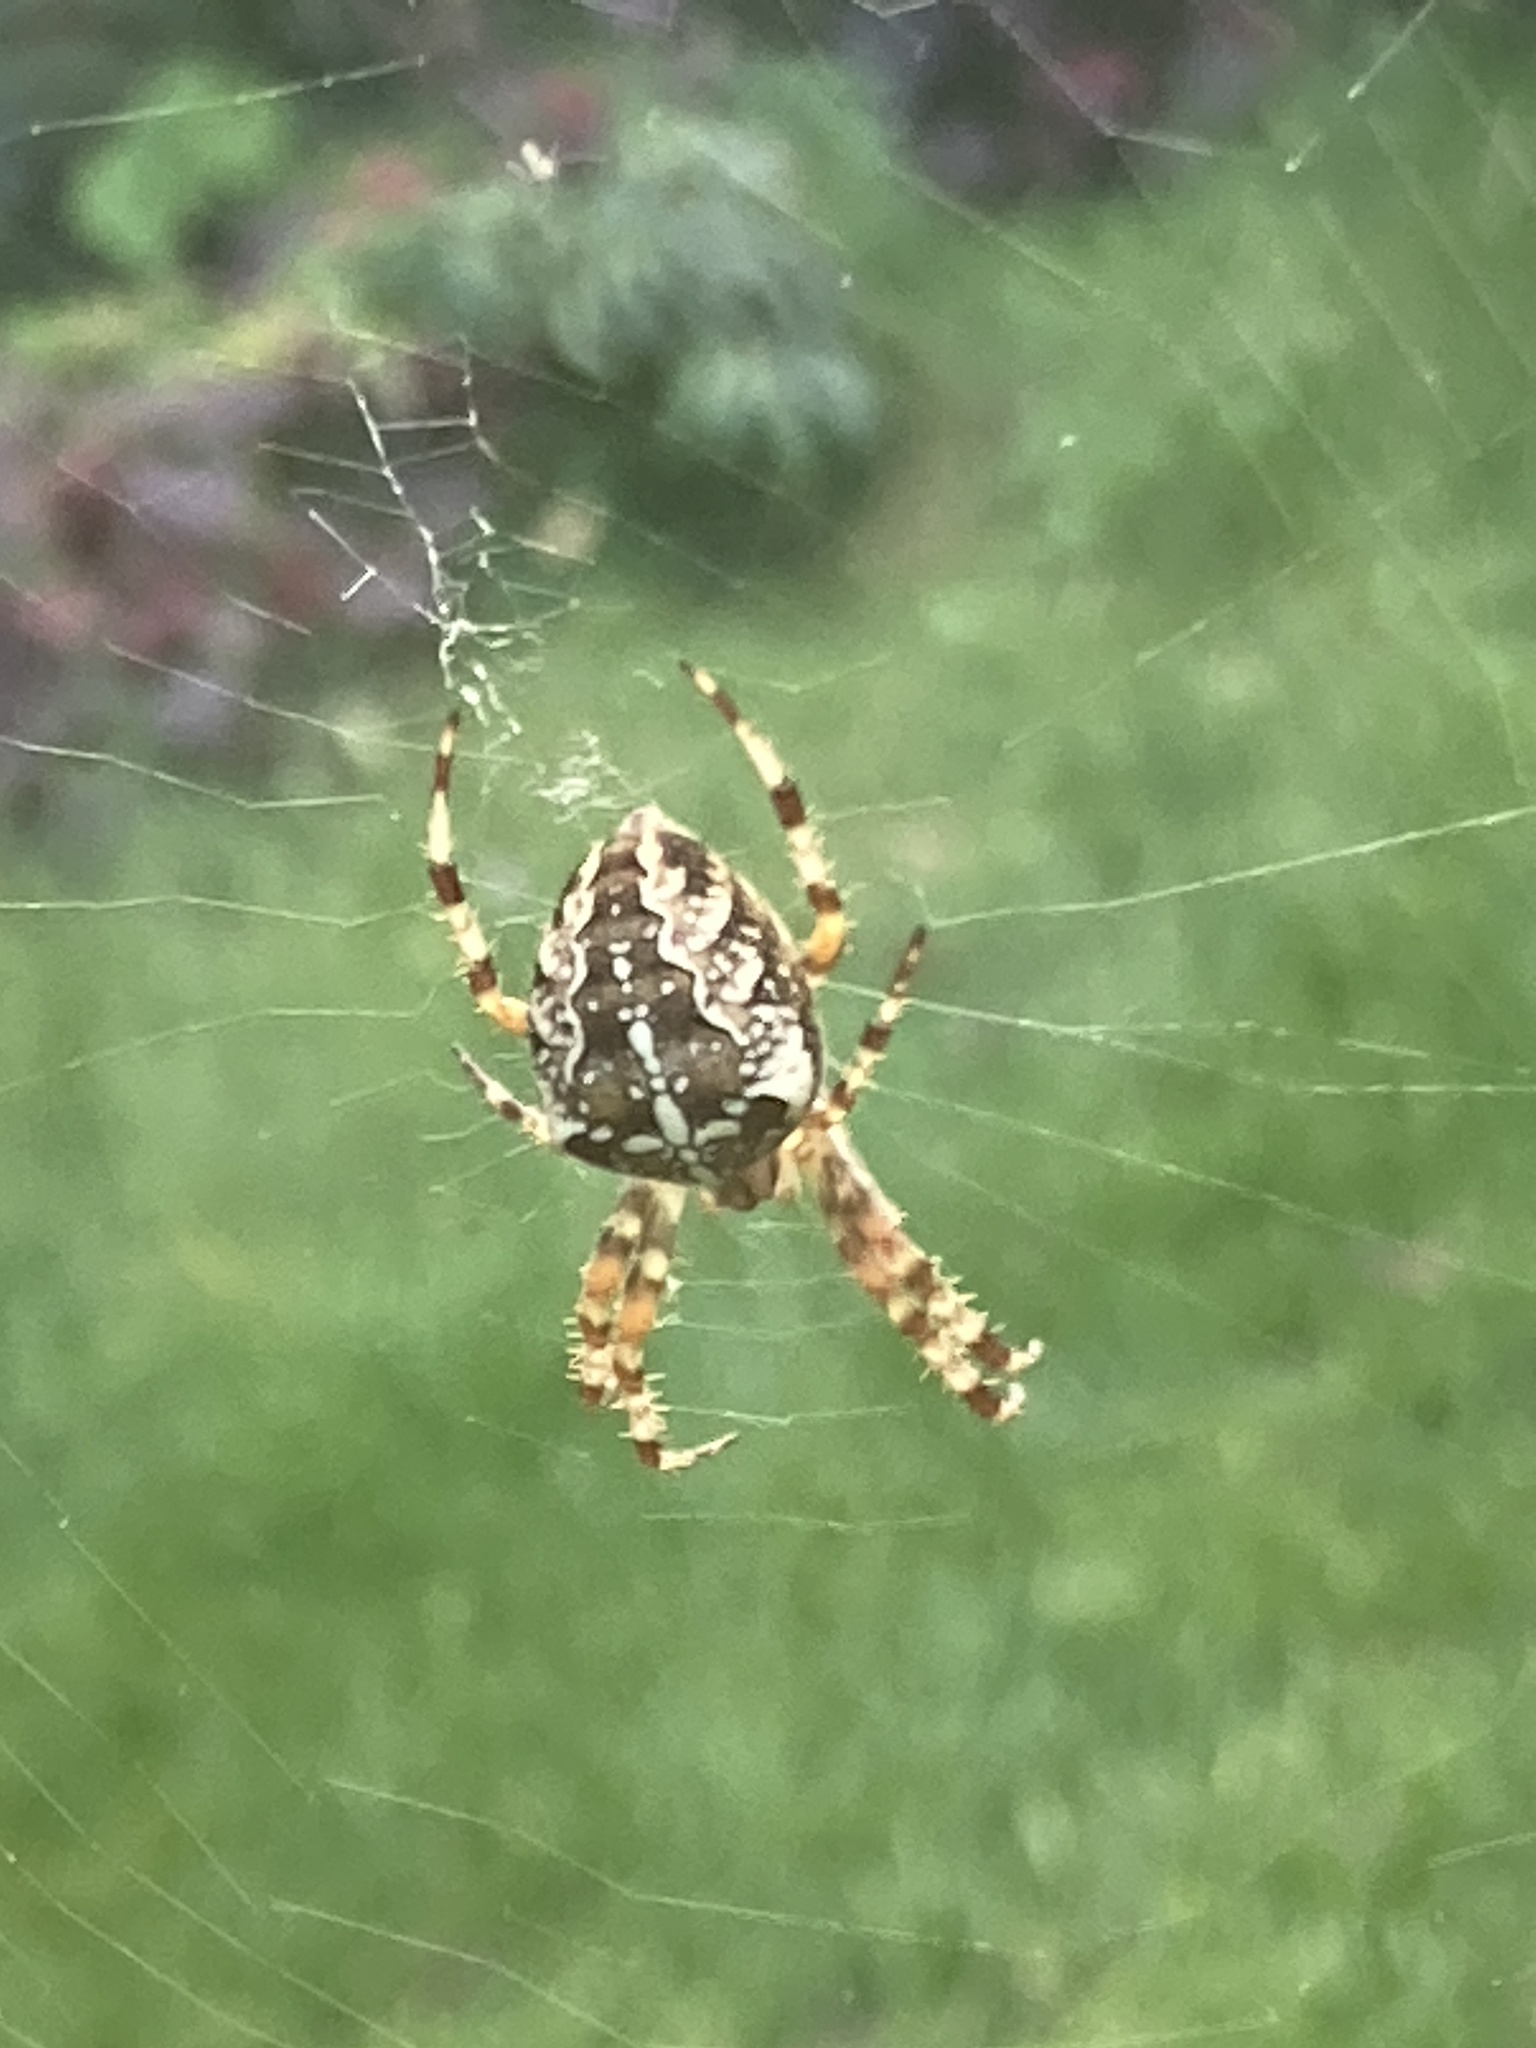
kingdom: Animalia
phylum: Arthropoda
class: Arachnida
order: Araneae
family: Araneidae
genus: Araneus
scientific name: Araneus diadematus
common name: Cross orbweaver
